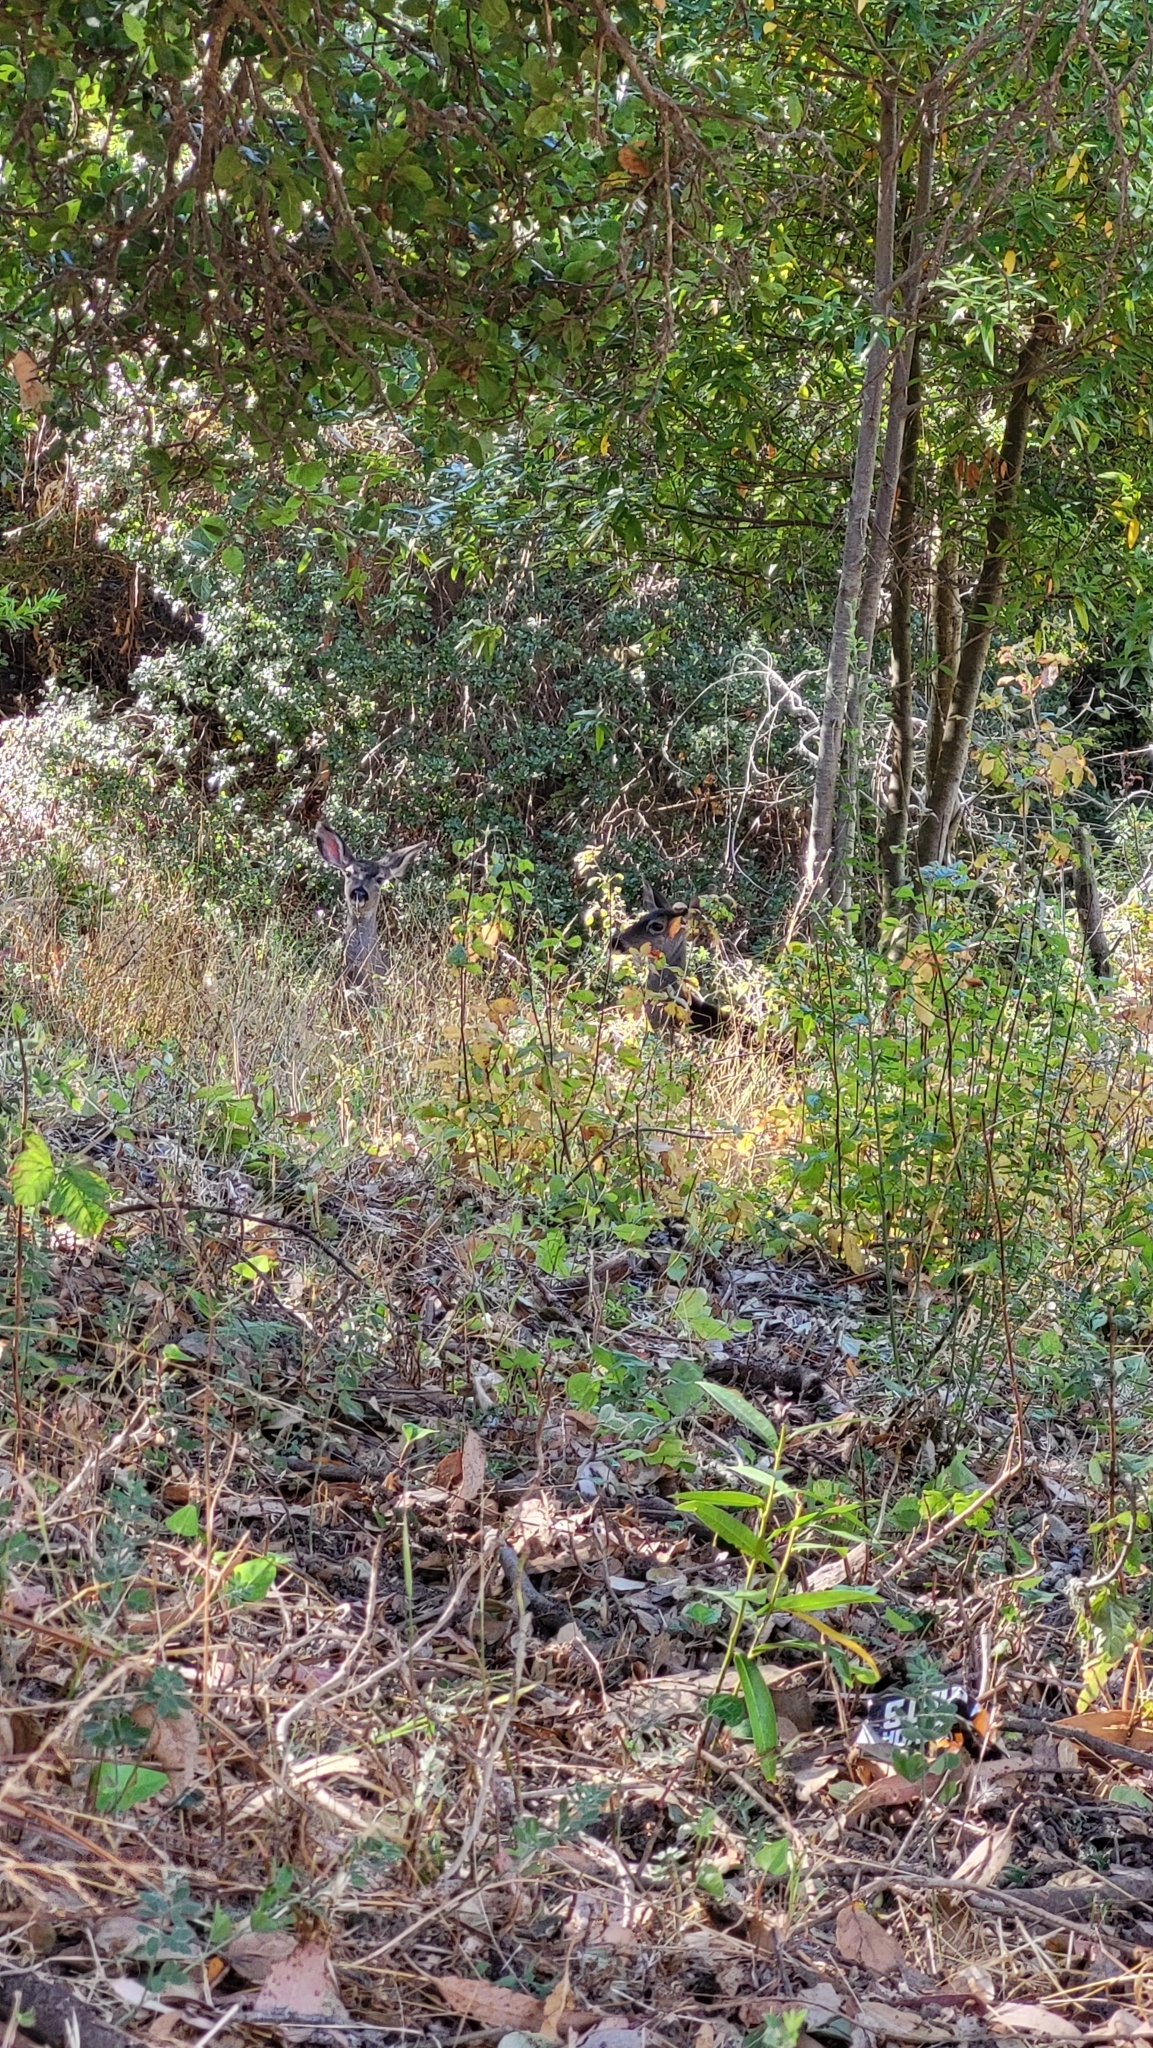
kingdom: Animalia
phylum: Chordata
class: Mammalia
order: Artiodactyla
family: Cervidae
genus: Odocoileus
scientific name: Odocoileus hemionus
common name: Mule deer
